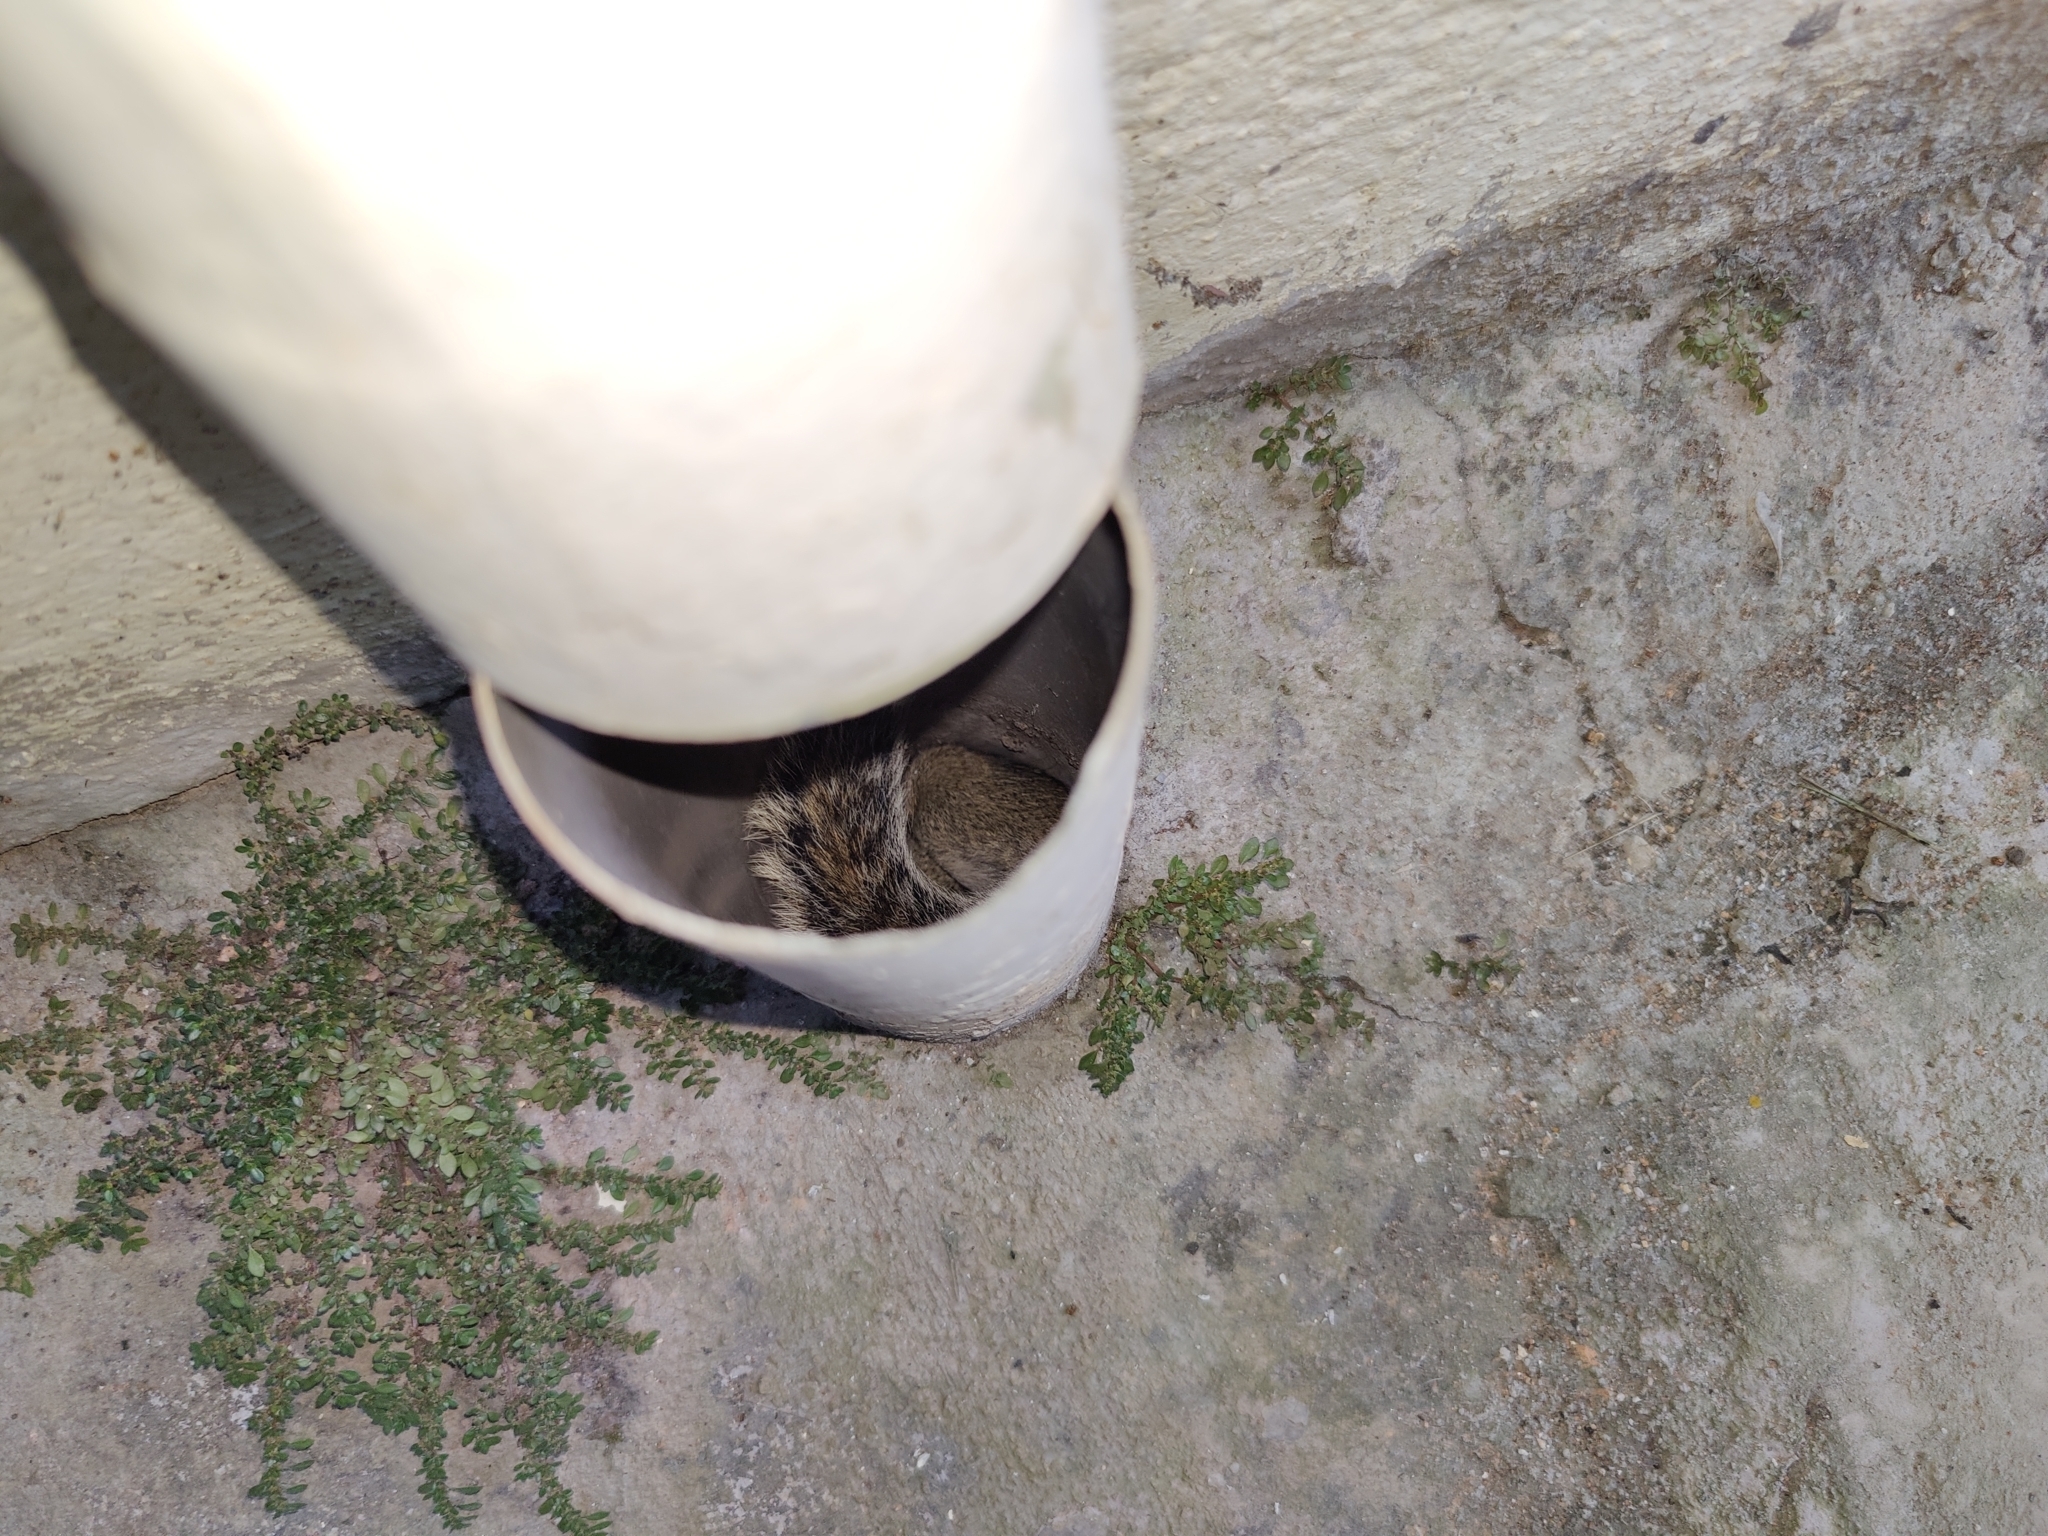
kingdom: Animalia
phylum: Chordata
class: Mammalia
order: Rodentia
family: Sciuridae
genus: Funambulus
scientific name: Funambulus palmarum
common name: Indian palm squirrel
